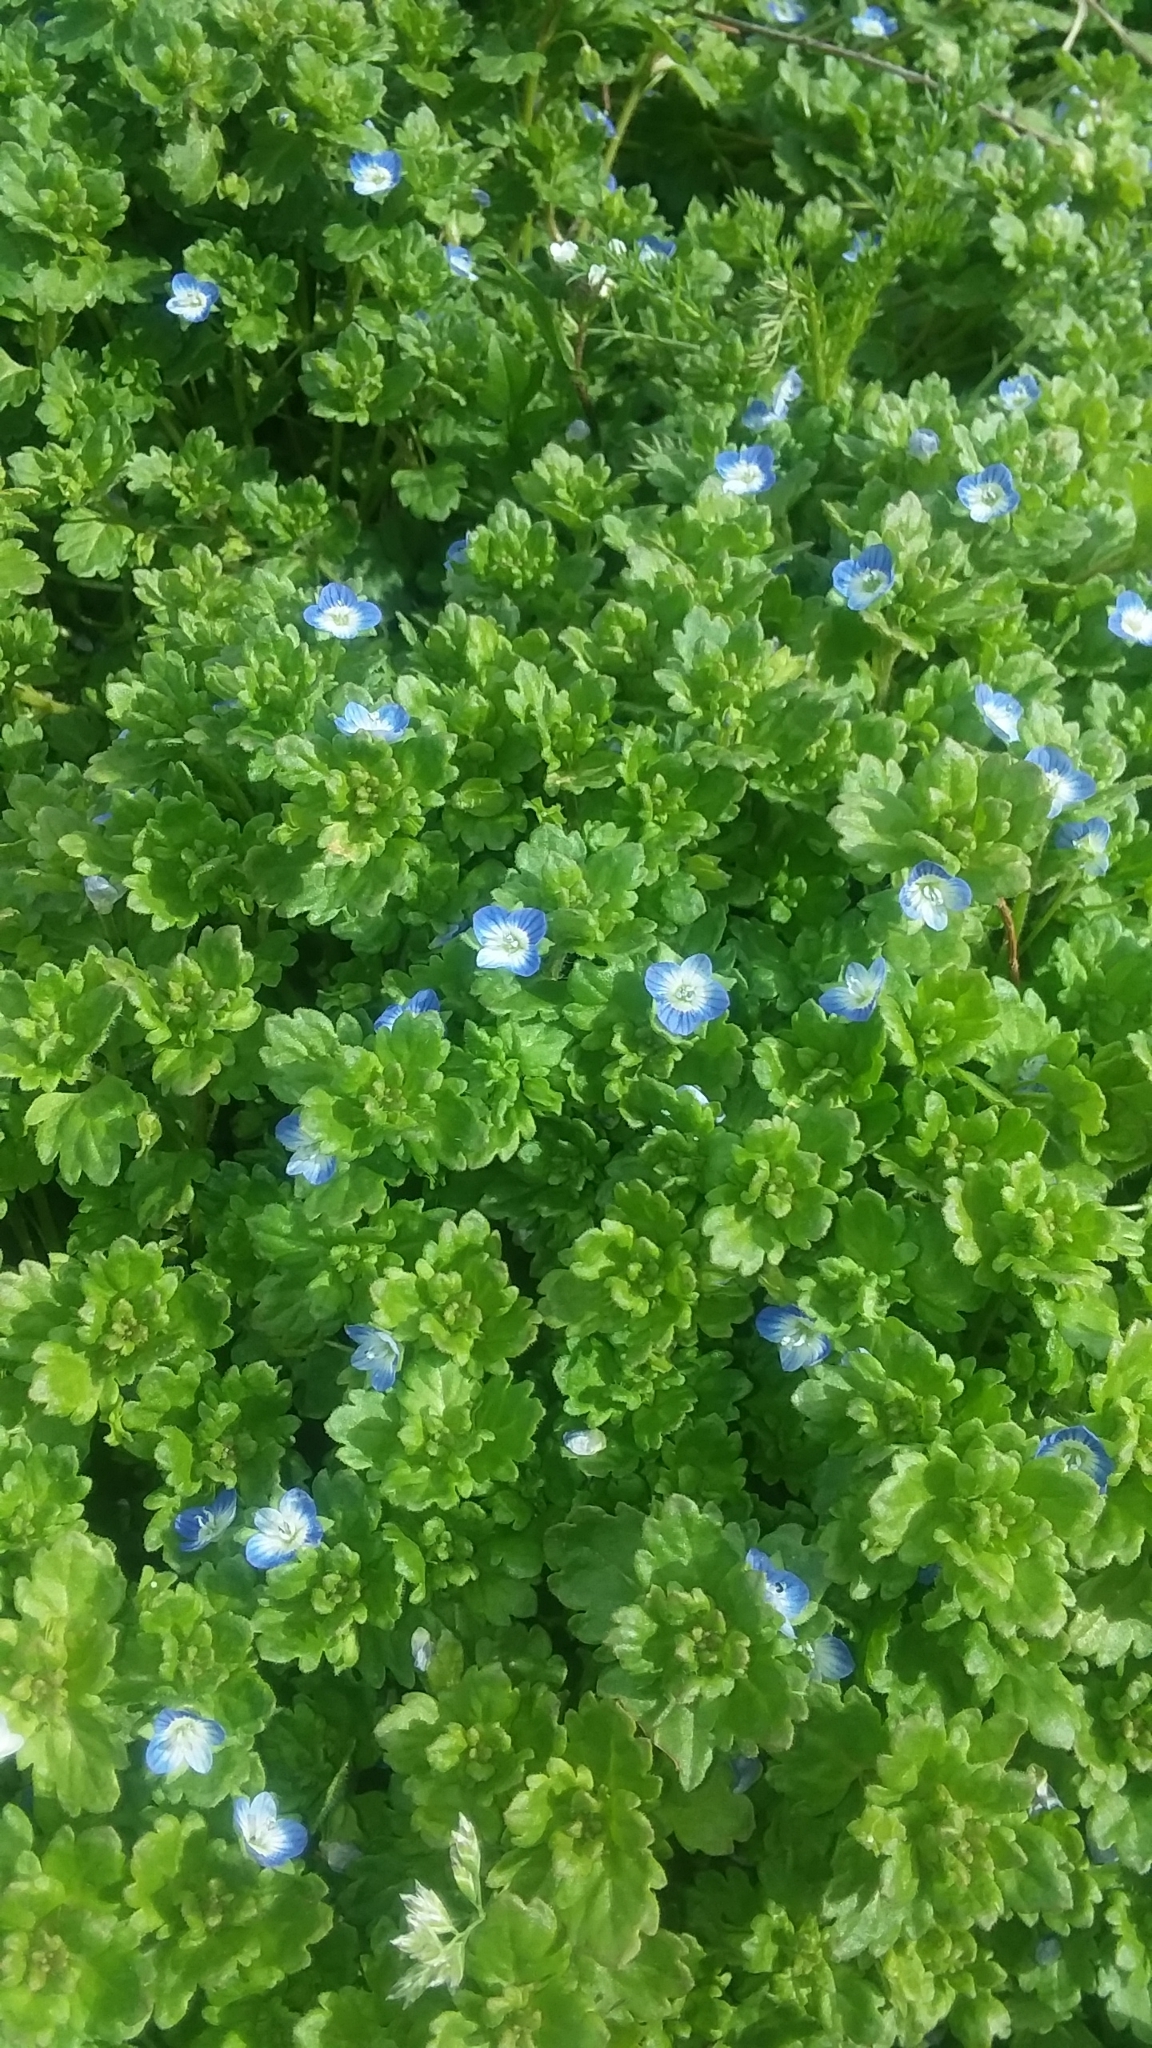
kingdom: Plantae
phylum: Tracheophyta
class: Magnoliopsida
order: Lamiales
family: Plantaginaceae
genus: Veronica
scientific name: Veronica persica
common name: Common field-speedwell
